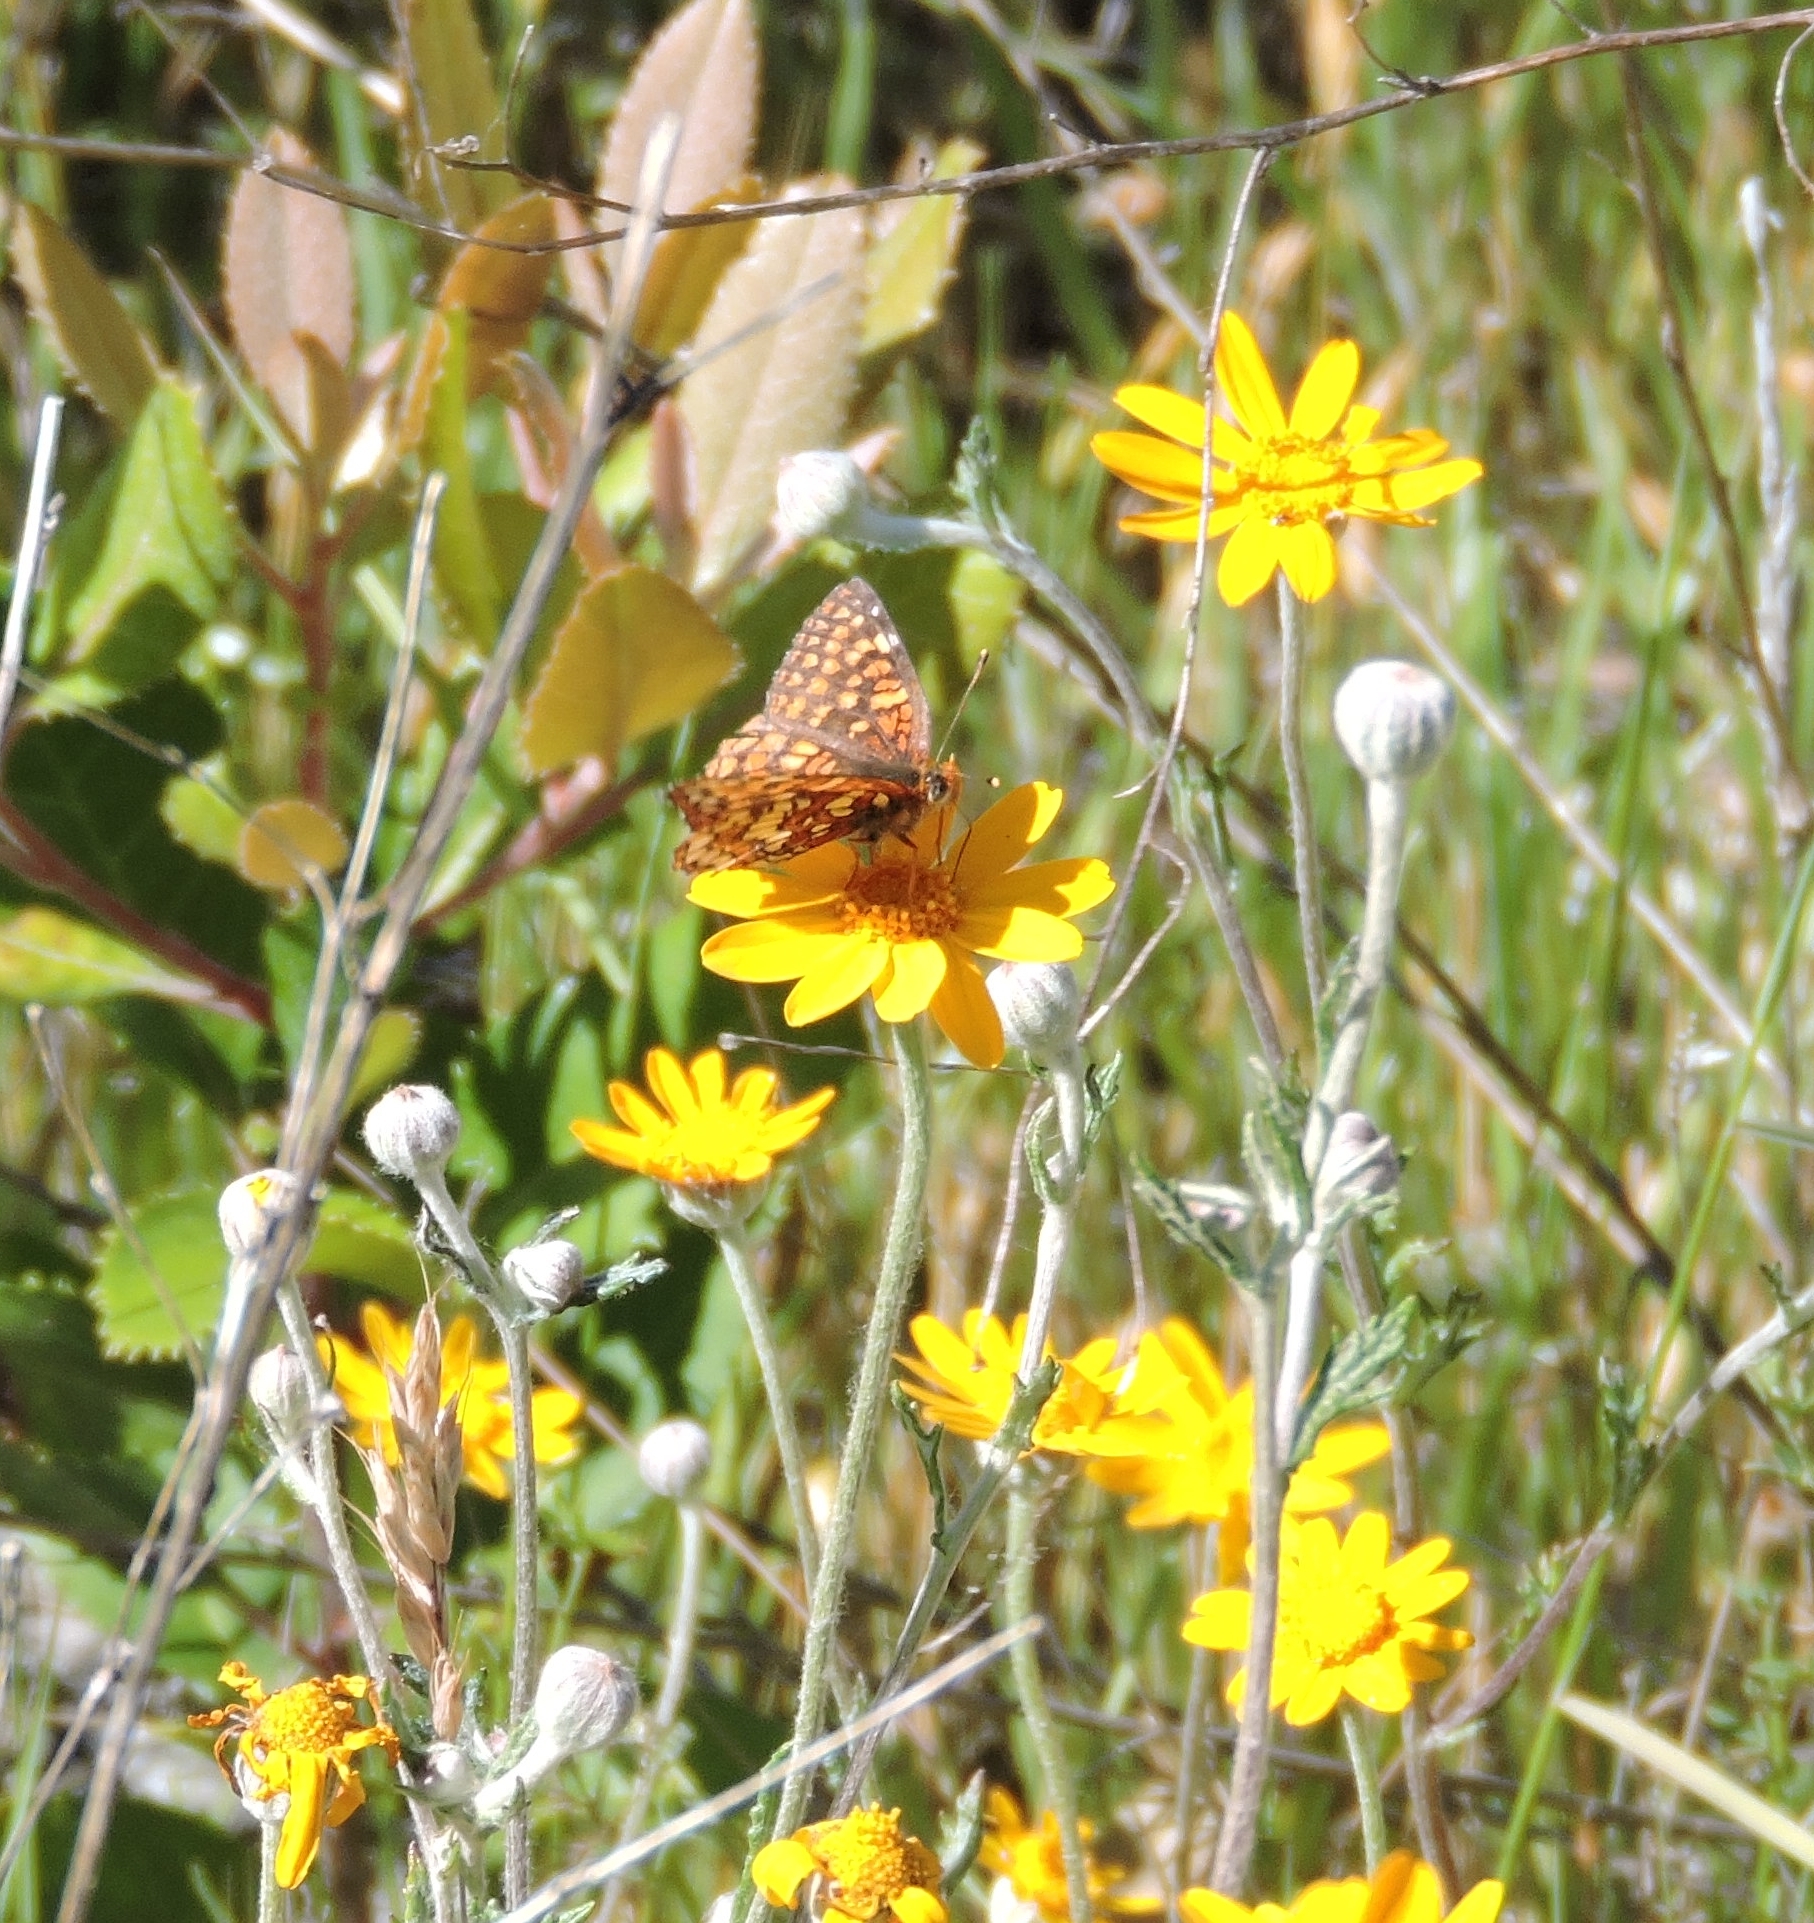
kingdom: Animalia
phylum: Arthropoda
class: Insecta
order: Lepidoptera
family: Nymphalidae
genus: Chlosyne
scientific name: Chlosyne palla
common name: Northern checkerspot
